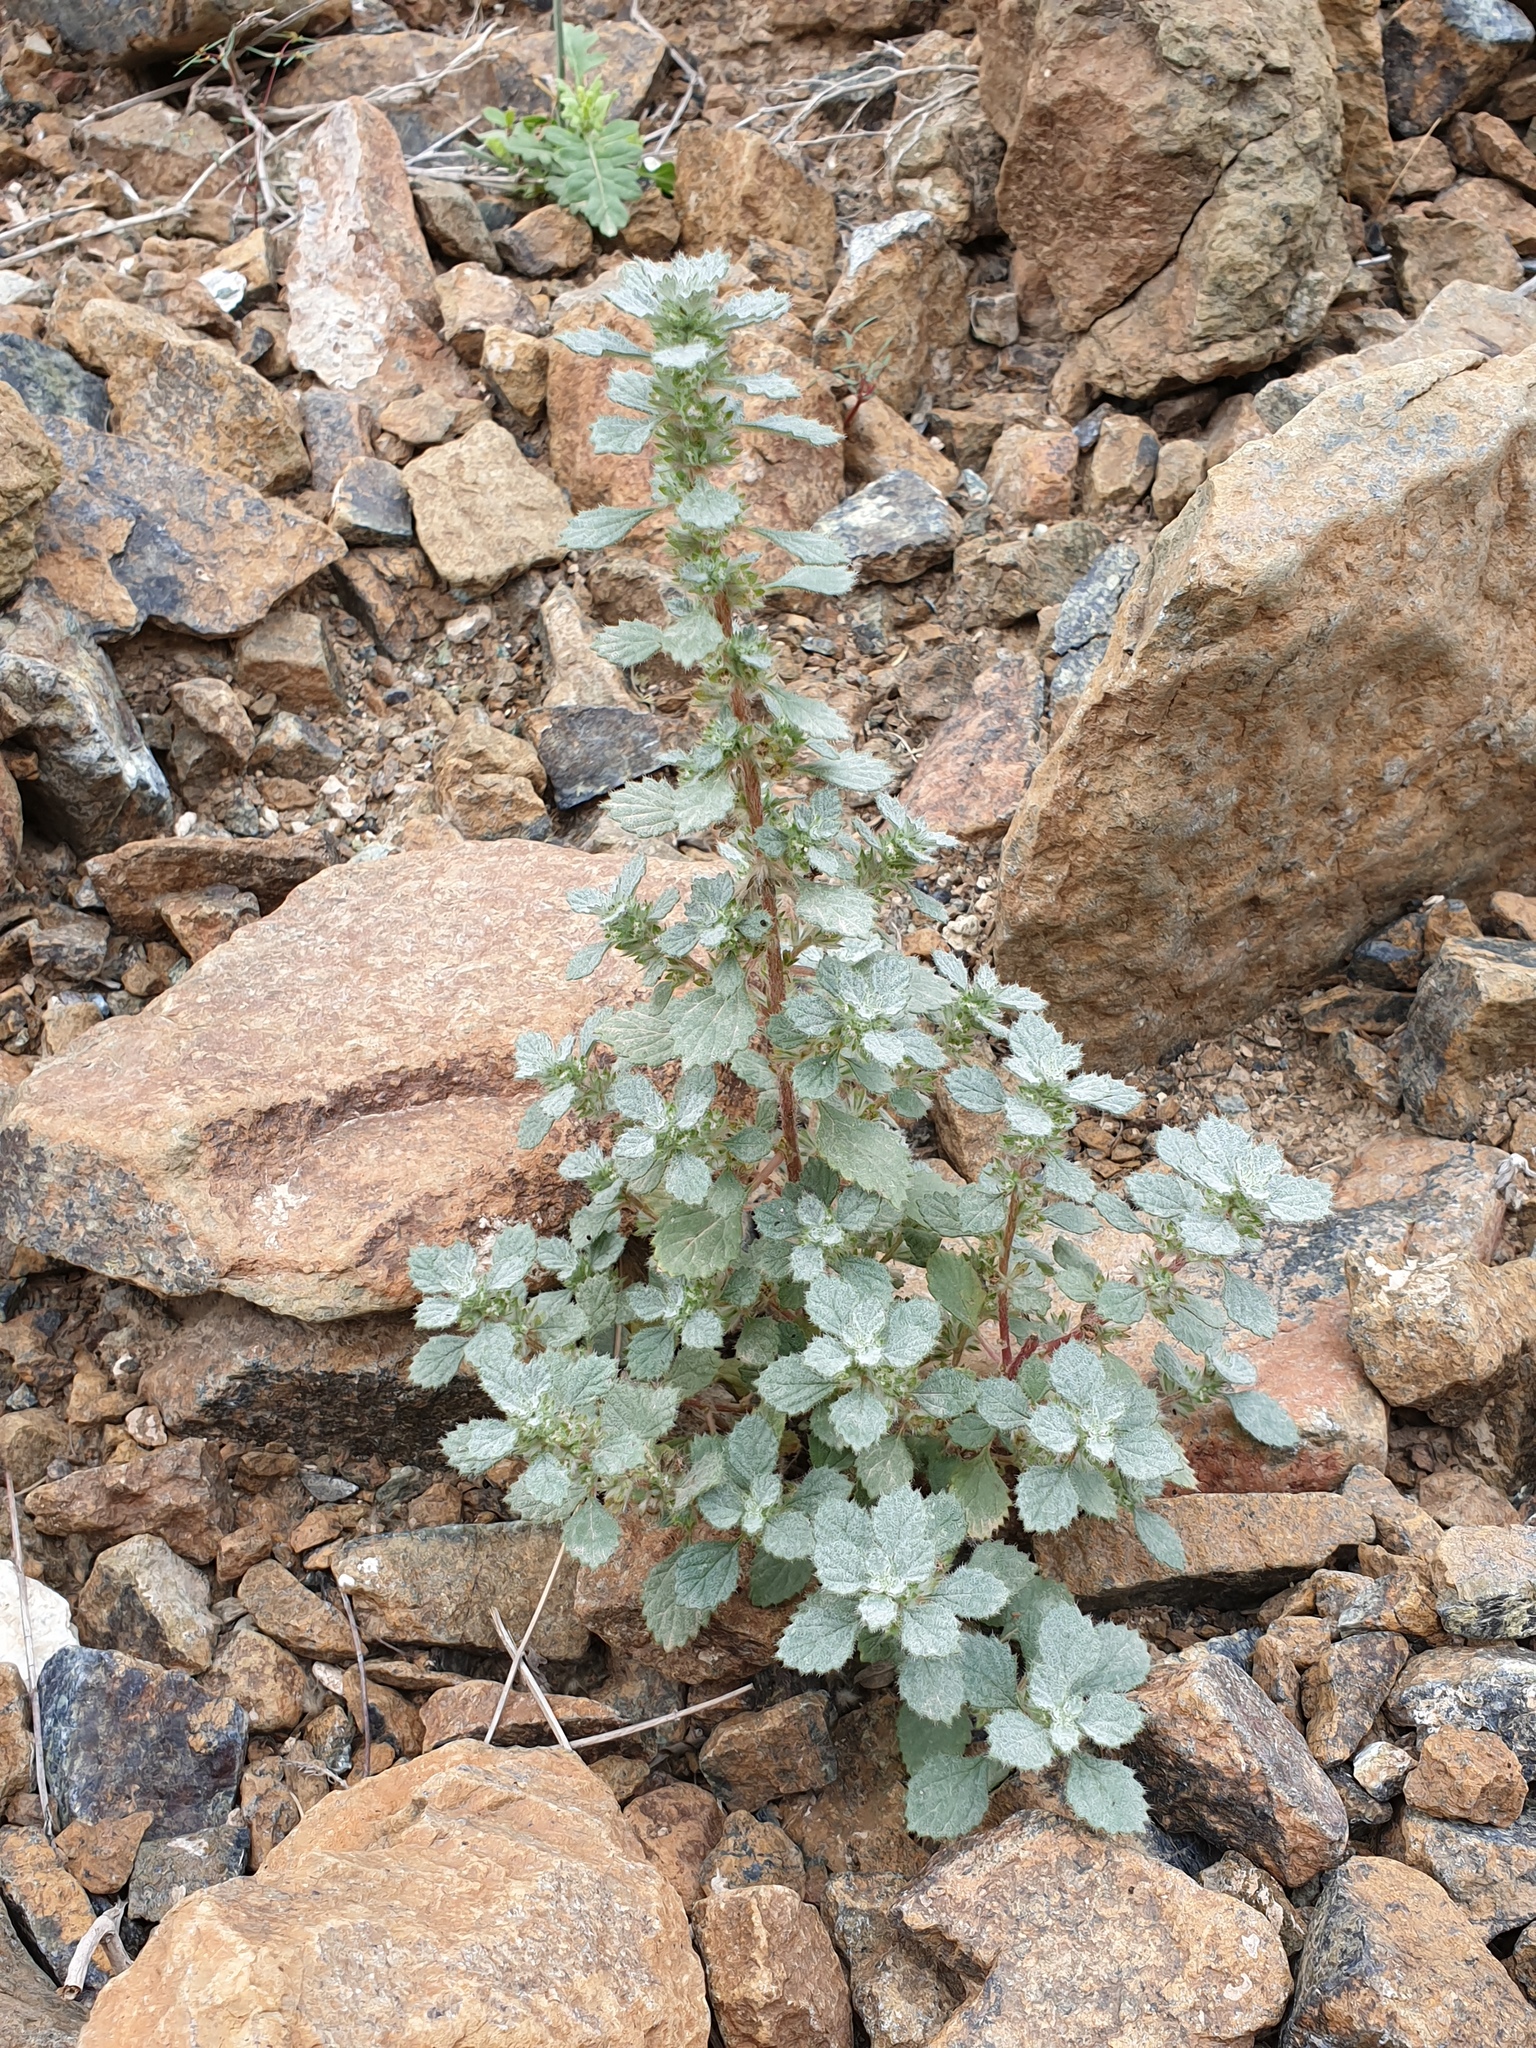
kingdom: Plantae
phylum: Tracheophyta
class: Magnoliopsida
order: Rosales
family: Urticaceae
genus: Forsskaolea
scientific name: Forsskaolea tenacissima
